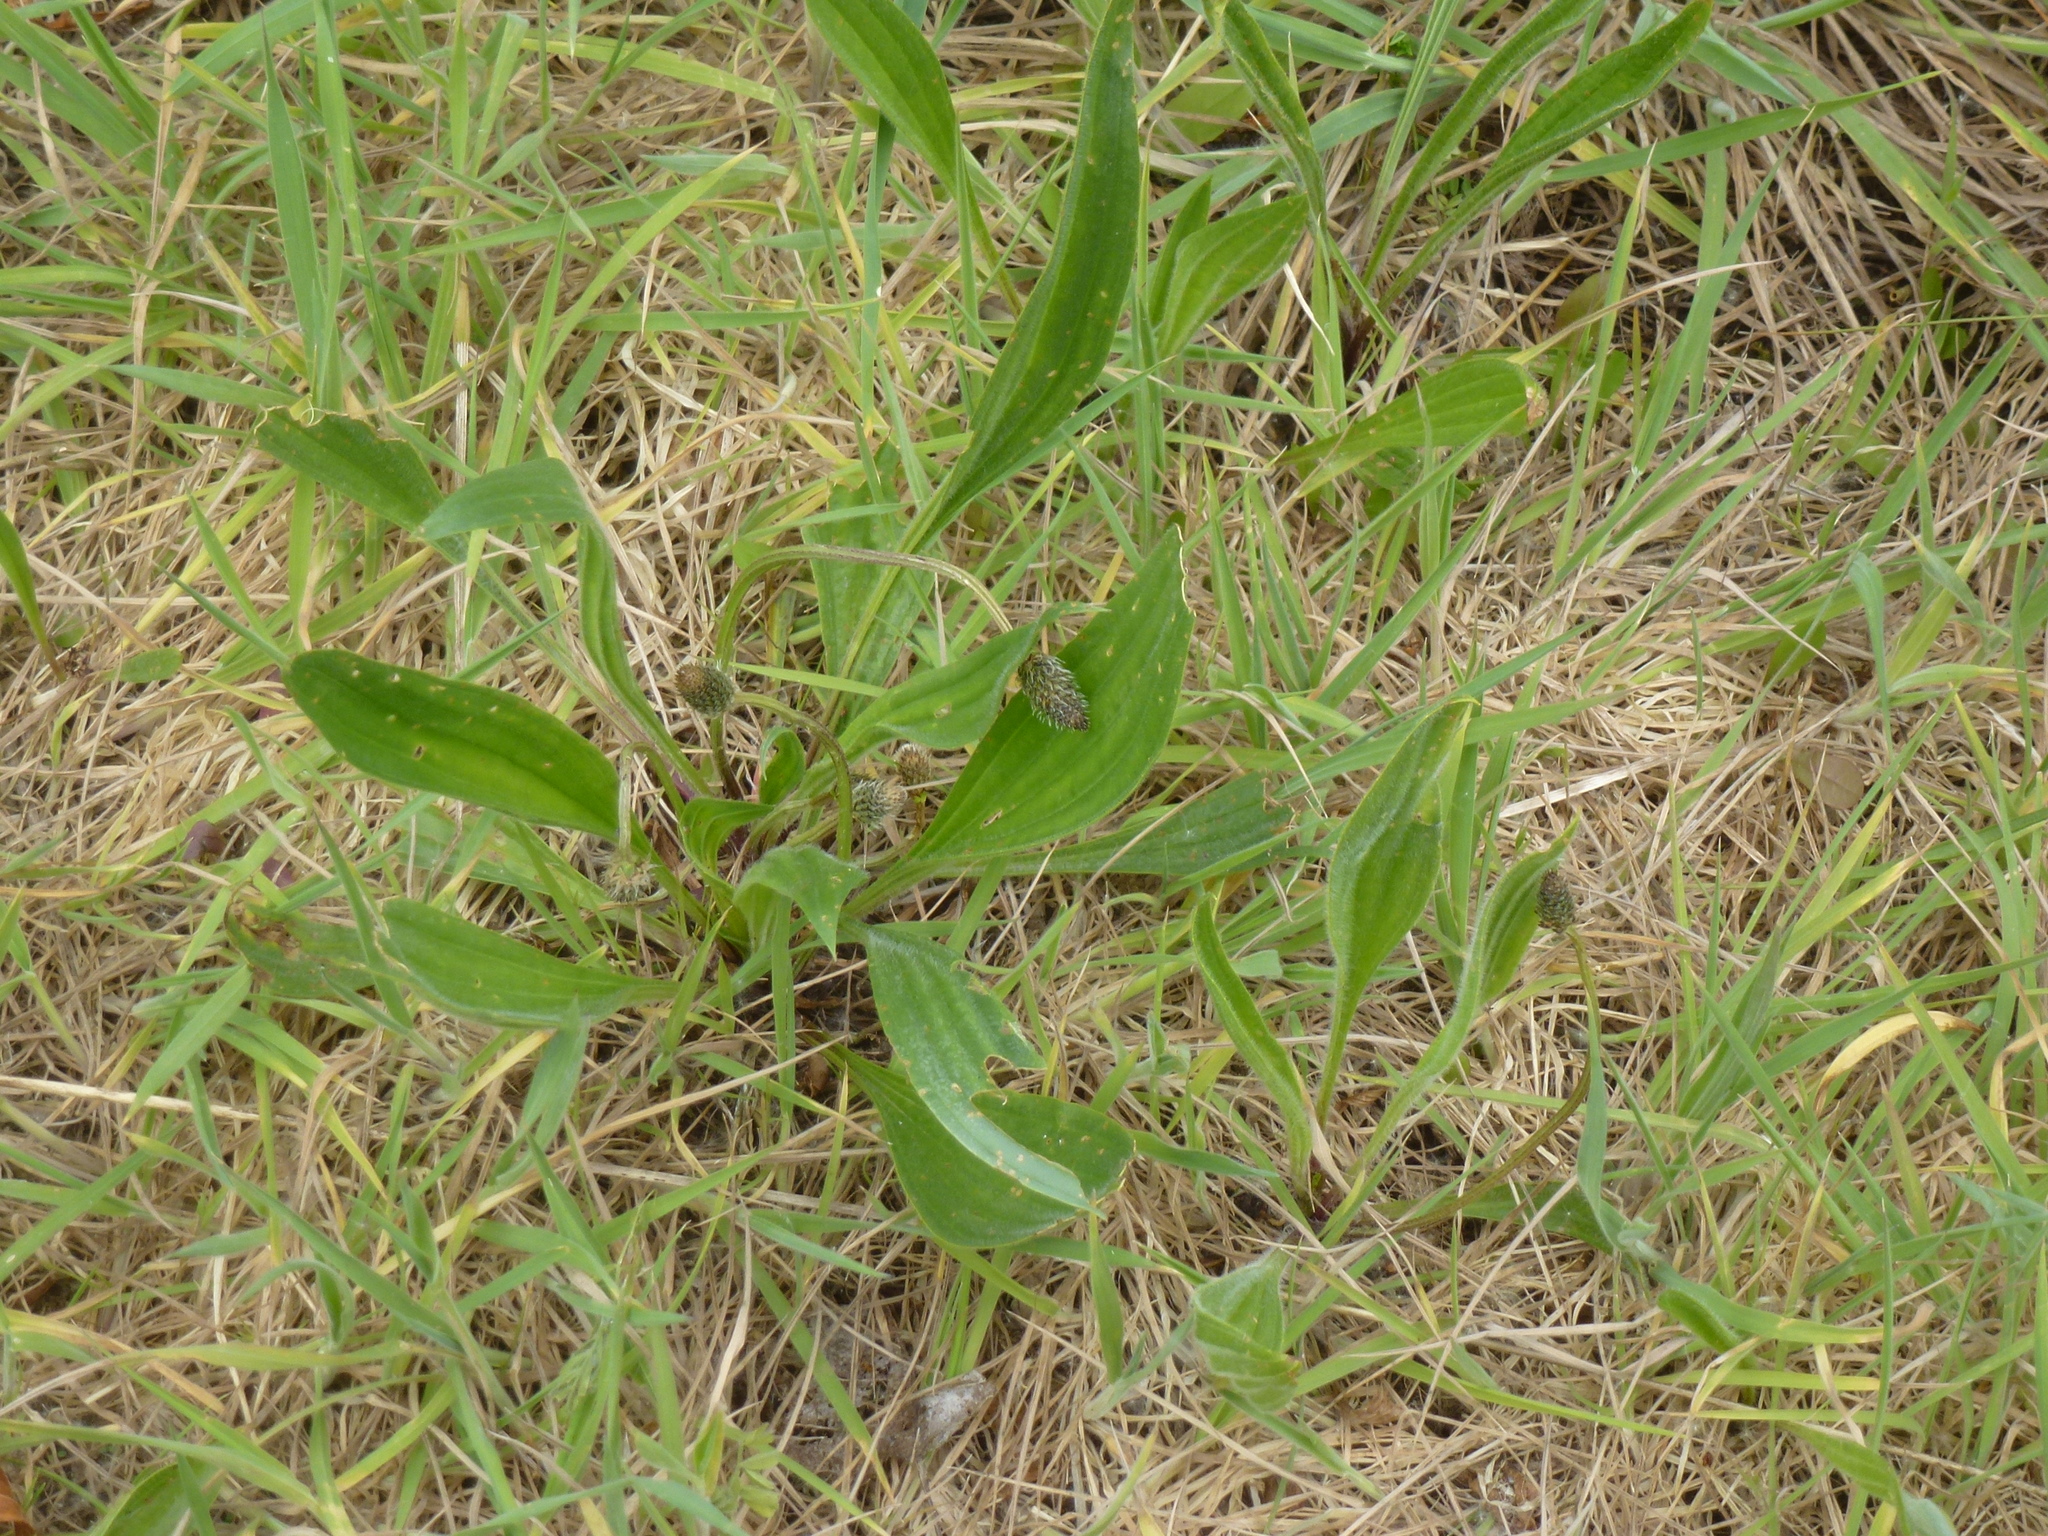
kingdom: Plantae
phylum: Tracheophyta
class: Magnoliopsida
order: Lamiales
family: Plantaginaceae
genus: Plantago
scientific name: Plantago lanceolata
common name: Ribwort plantain
